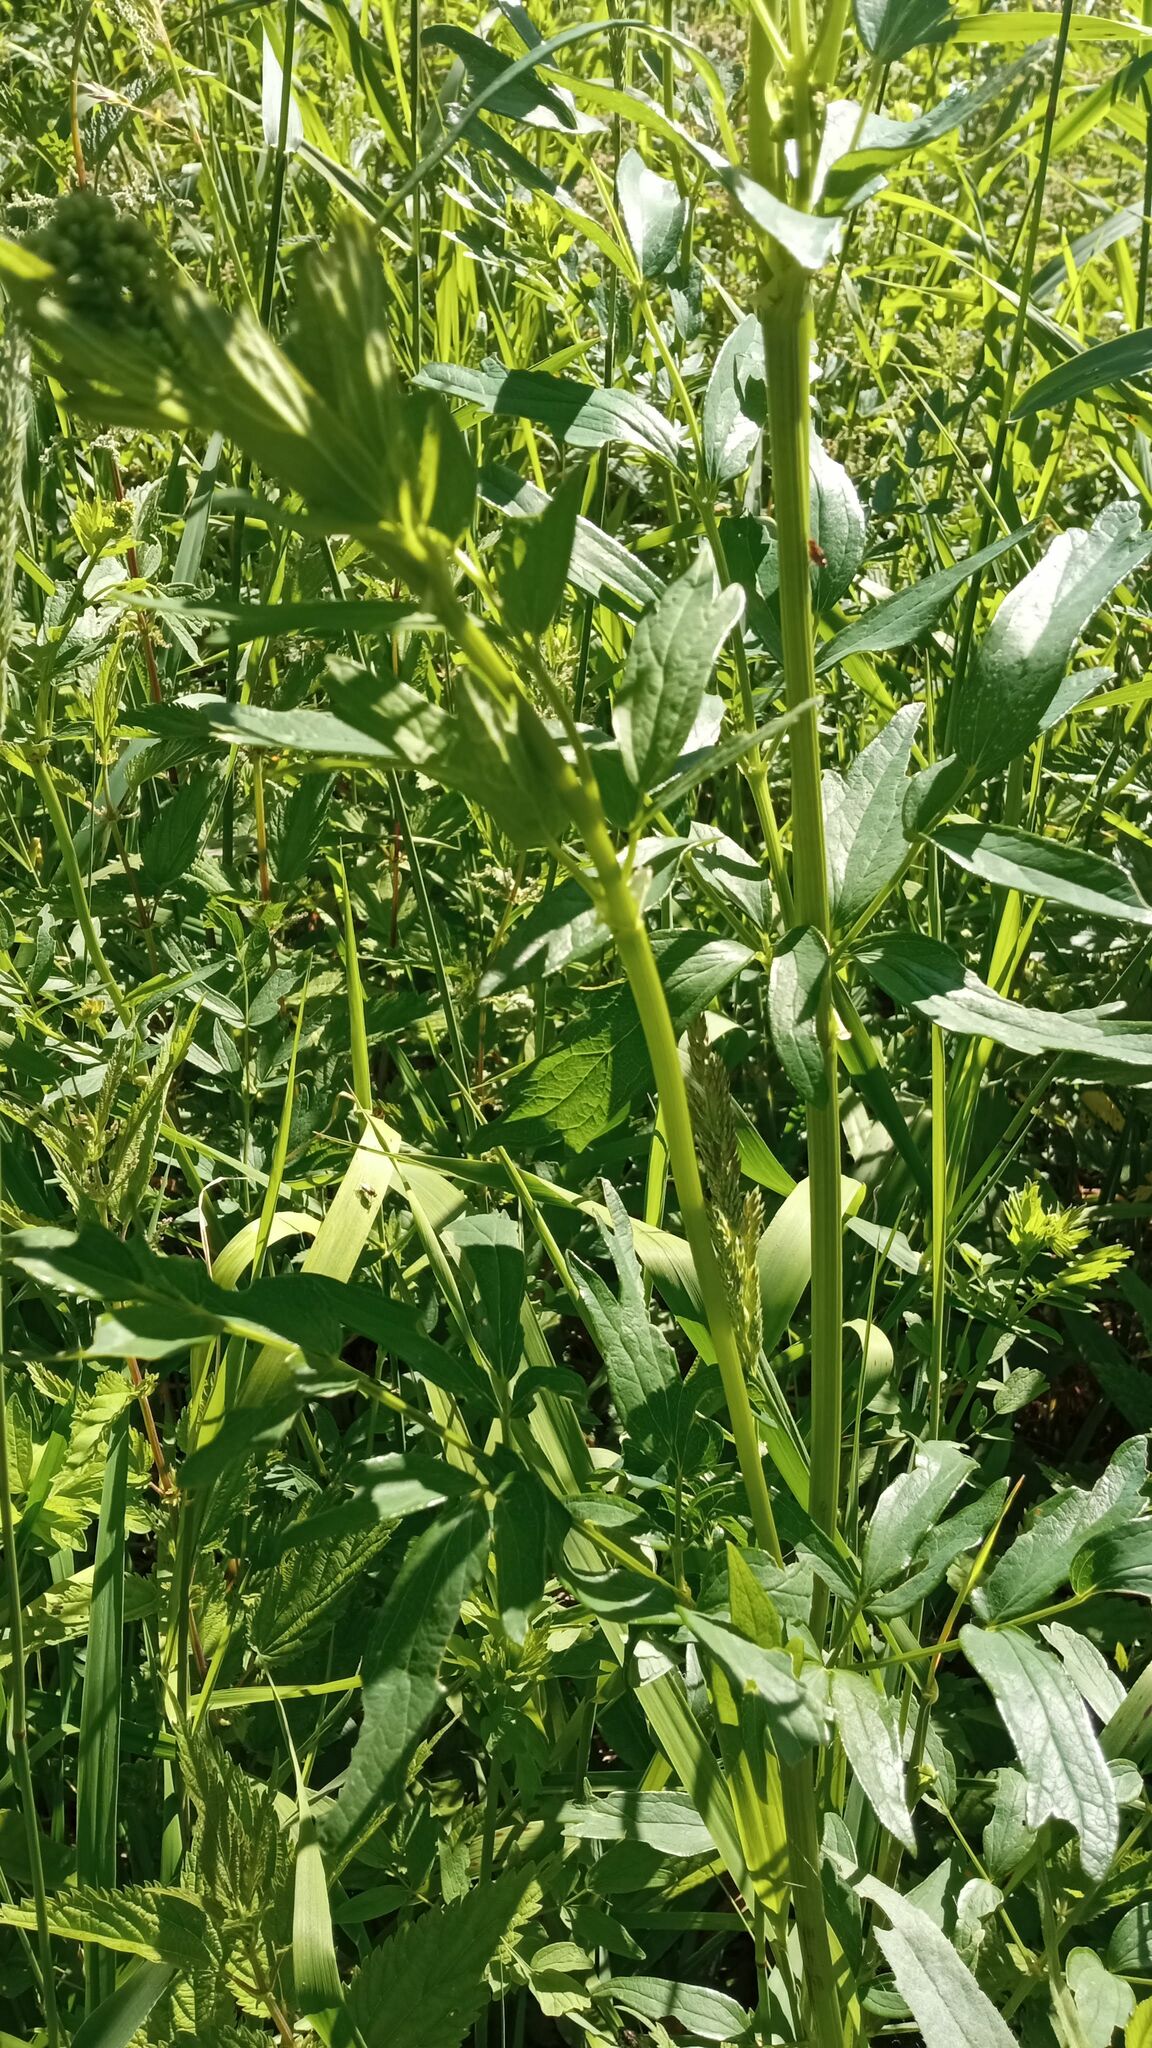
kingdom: Plantae
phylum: Tracheophyta
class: Magnoliopsida
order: Ranunculales
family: Ranunculaceae
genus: Thalictrum
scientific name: Thalictrum simplex
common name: Small meadow-rue
